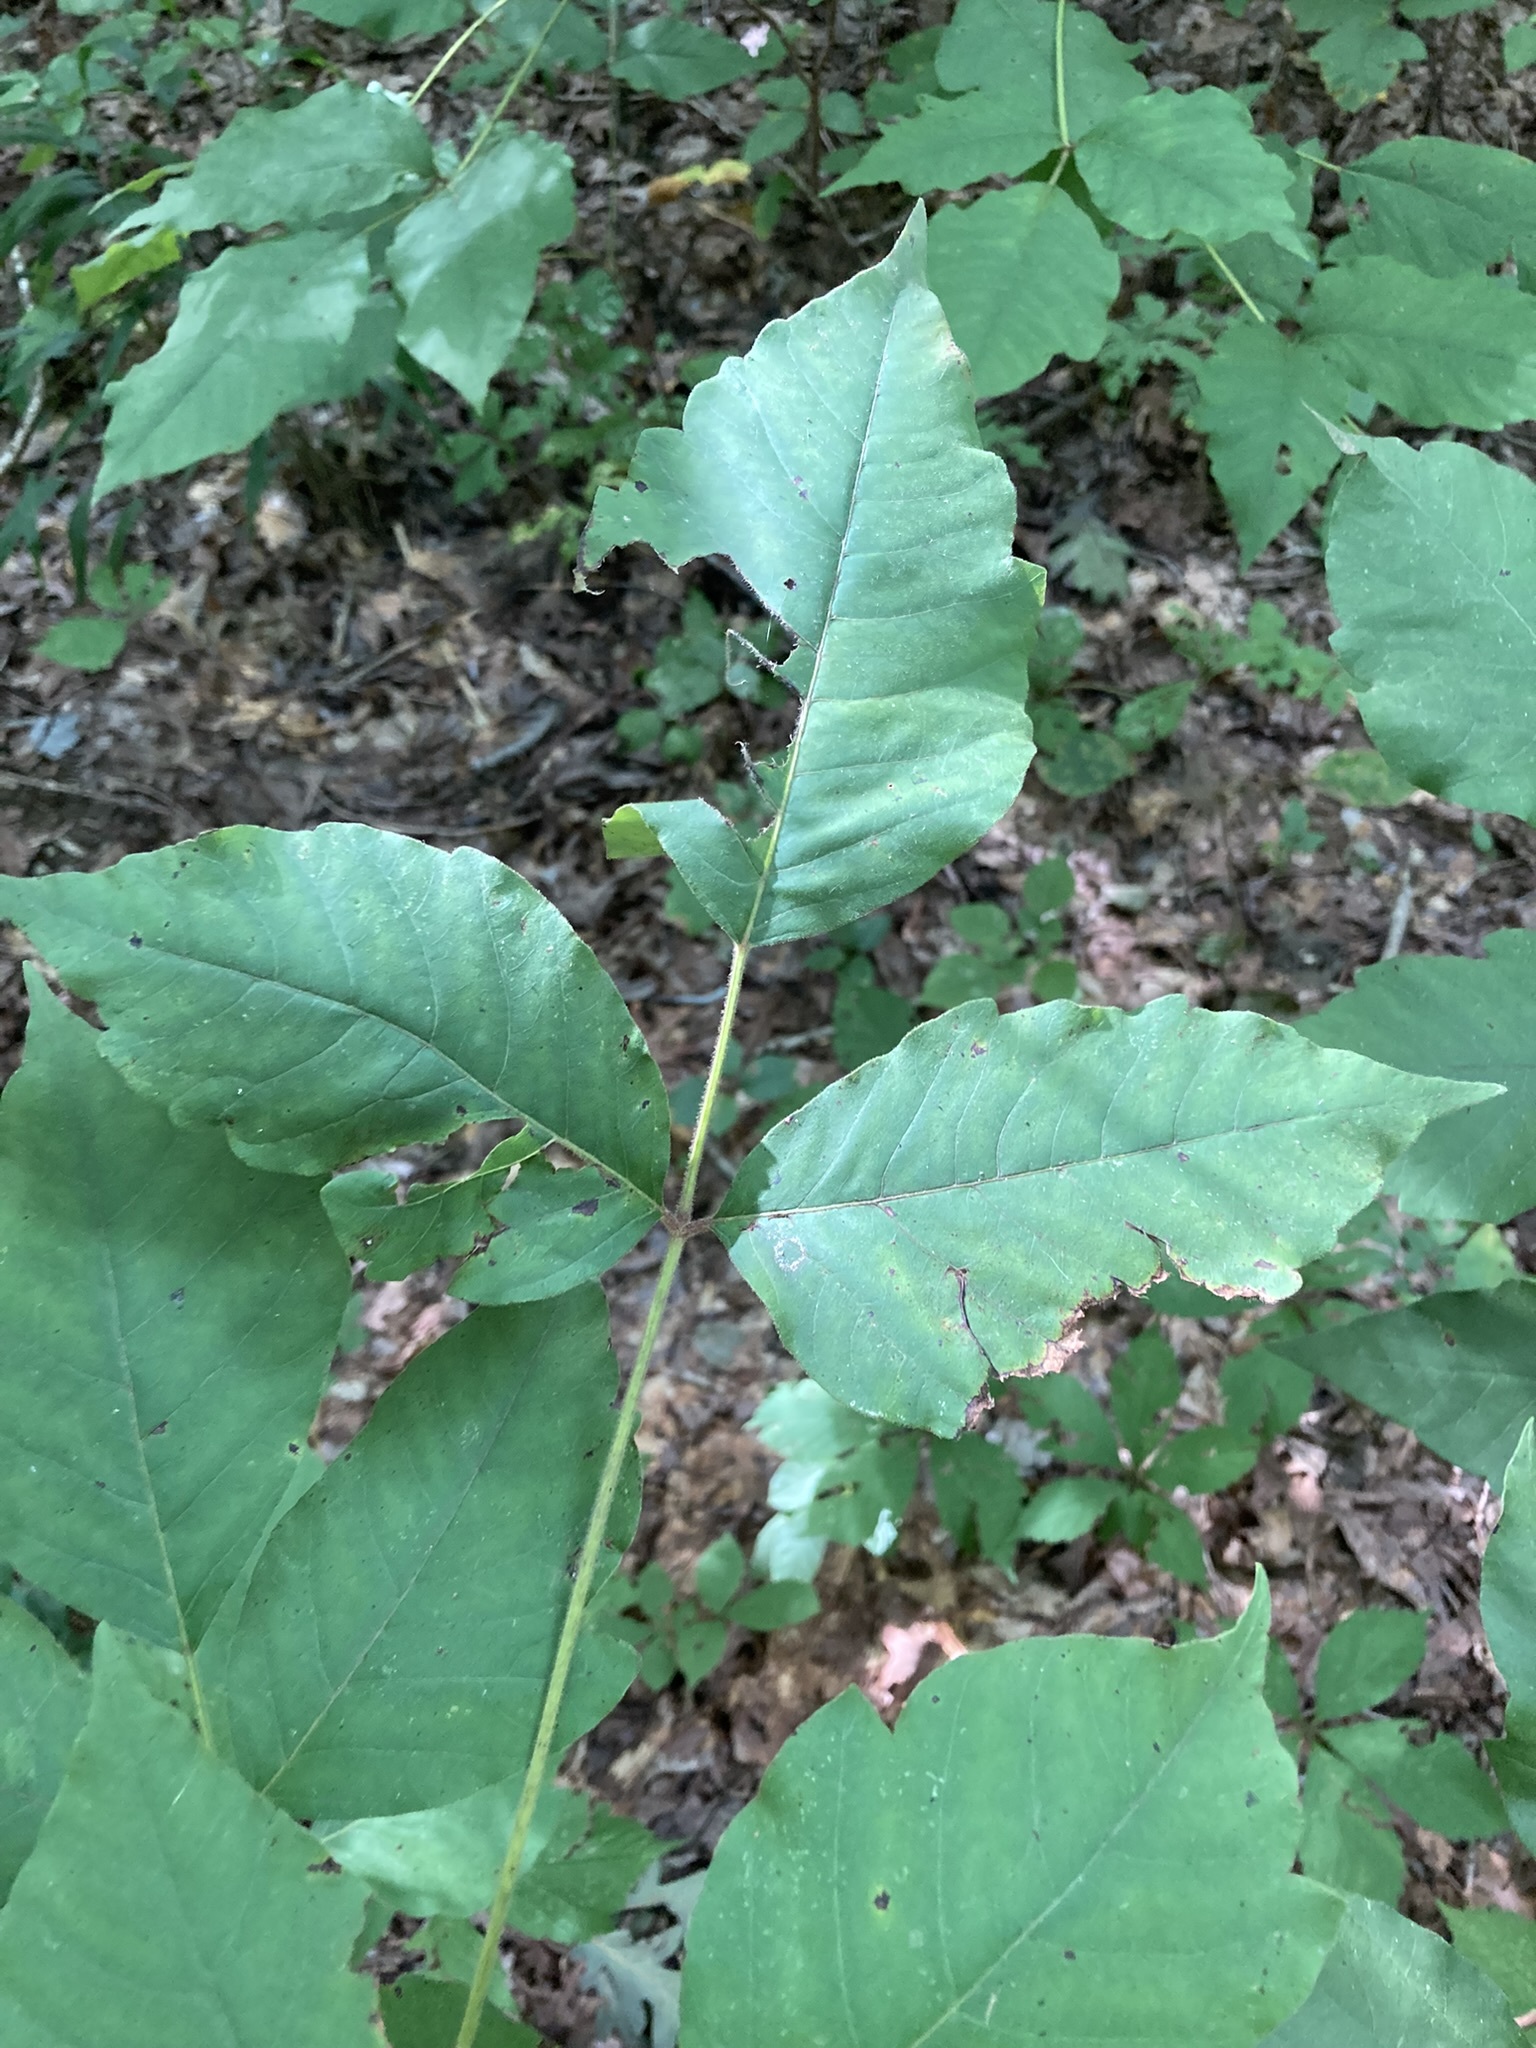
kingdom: Plantae
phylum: Tracheophyta
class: Magnoliopsida
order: Sapindales
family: Anacardiaceae
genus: Toxicodendron
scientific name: Toxicodendron radicans
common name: Poison ivy
